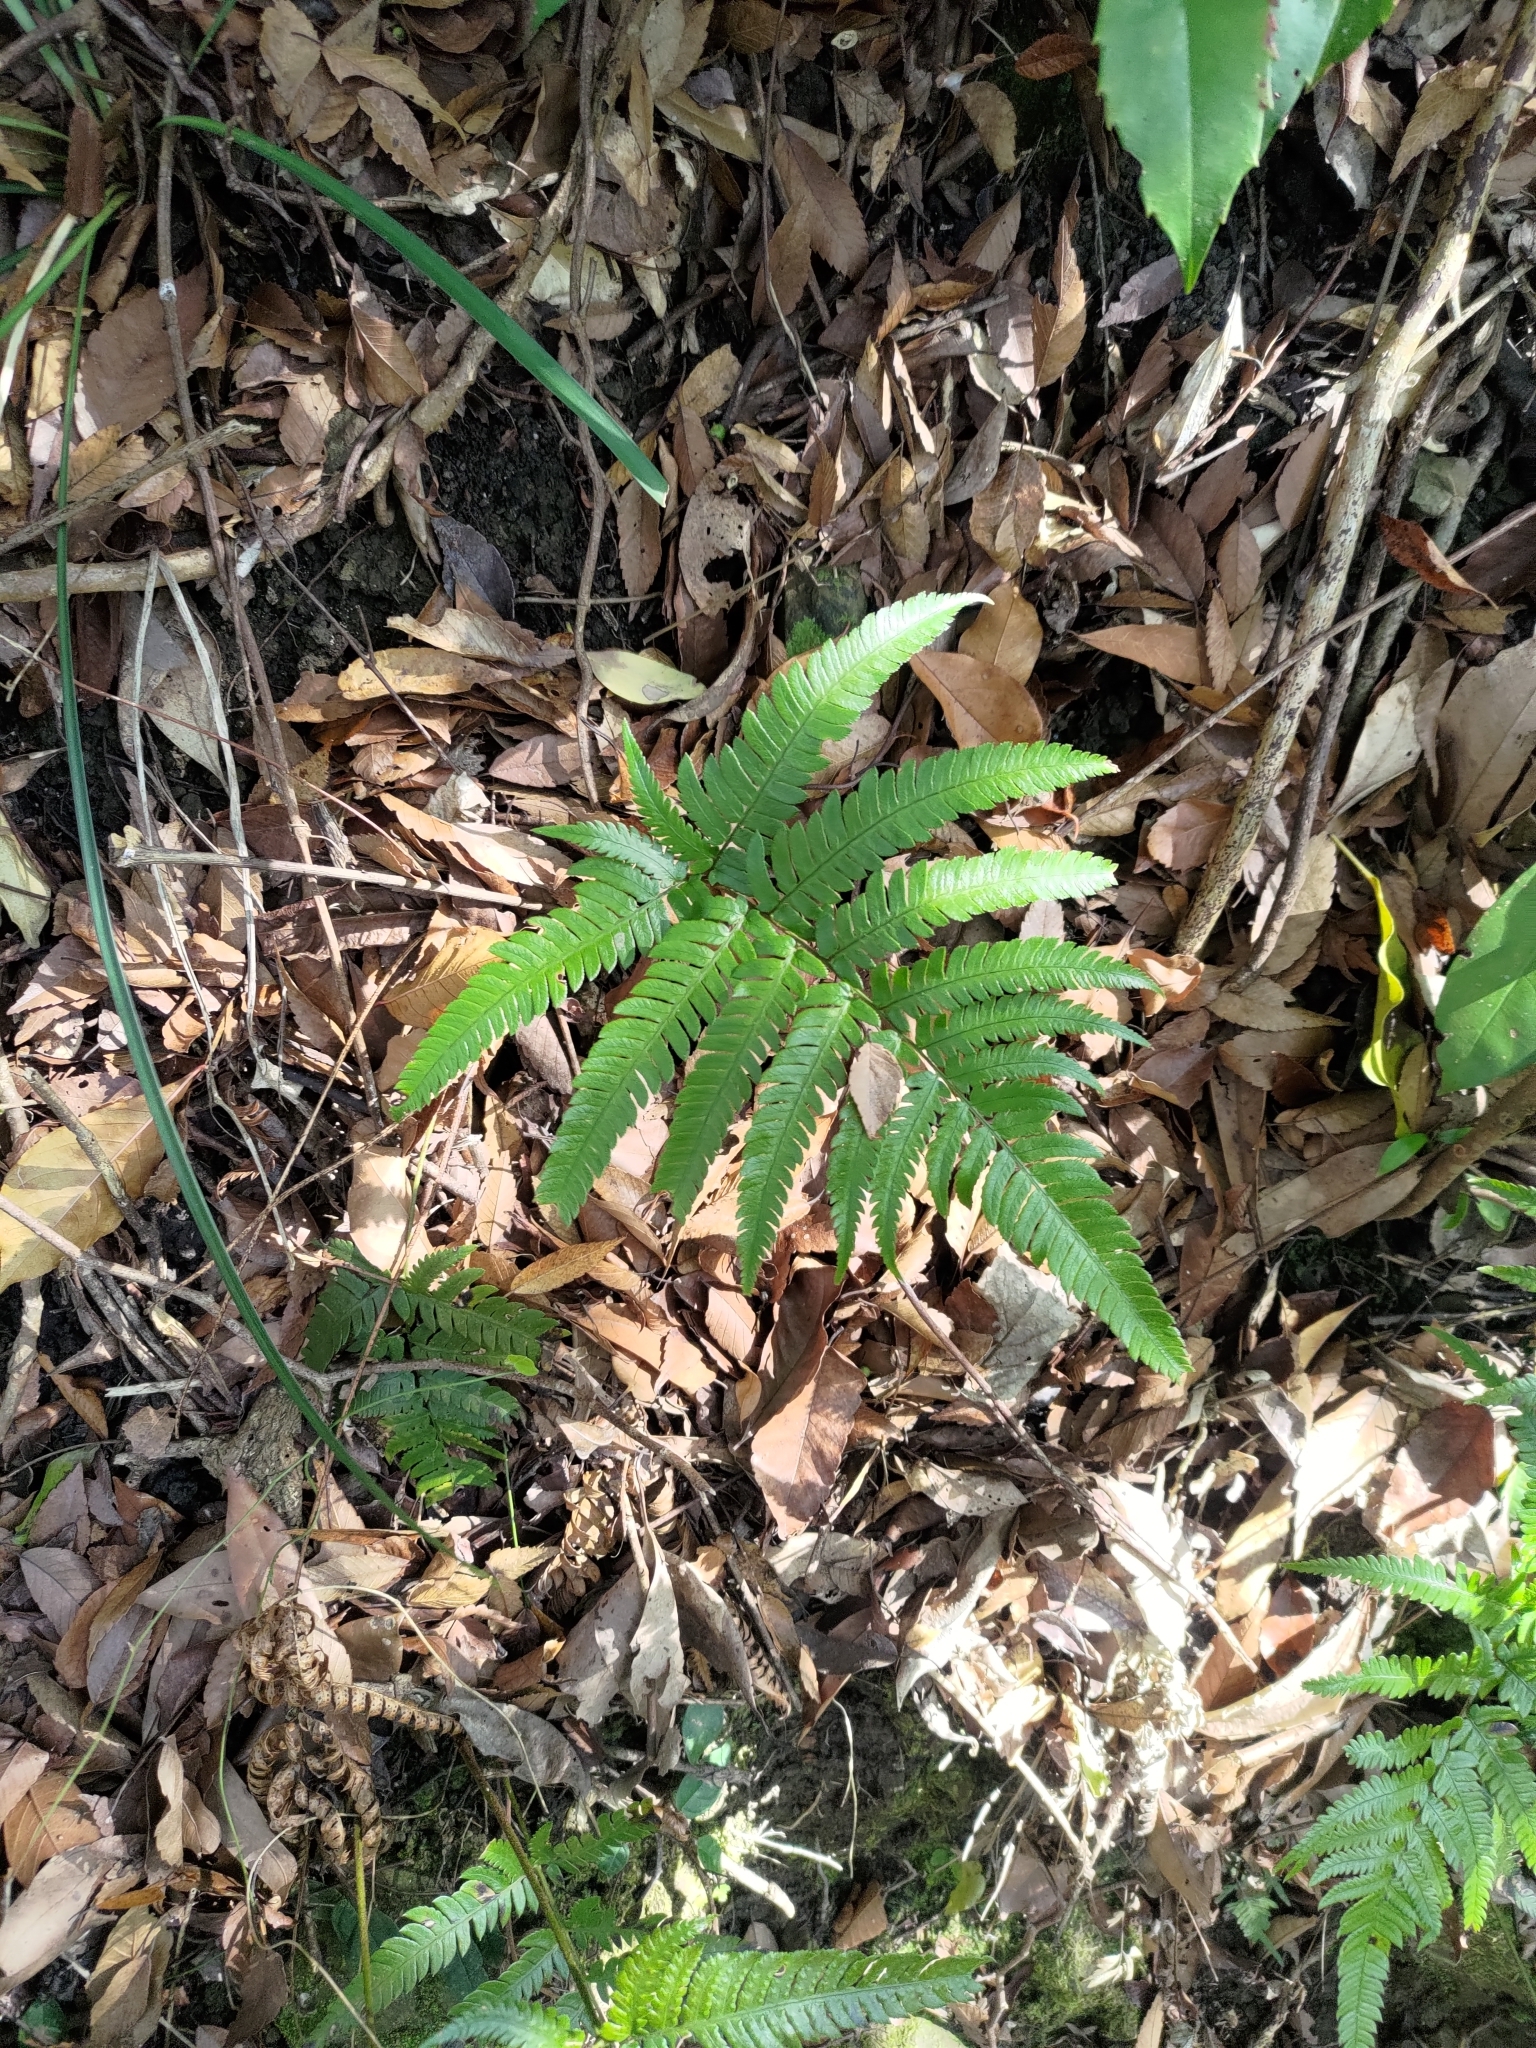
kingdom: Plantae
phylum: Tracheophyta
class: Polypodiopsida
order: Polypodiales
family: Dryopteridaceae
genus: Dryopteris
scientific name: Dryopteris varia
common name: Japanese holly fern
